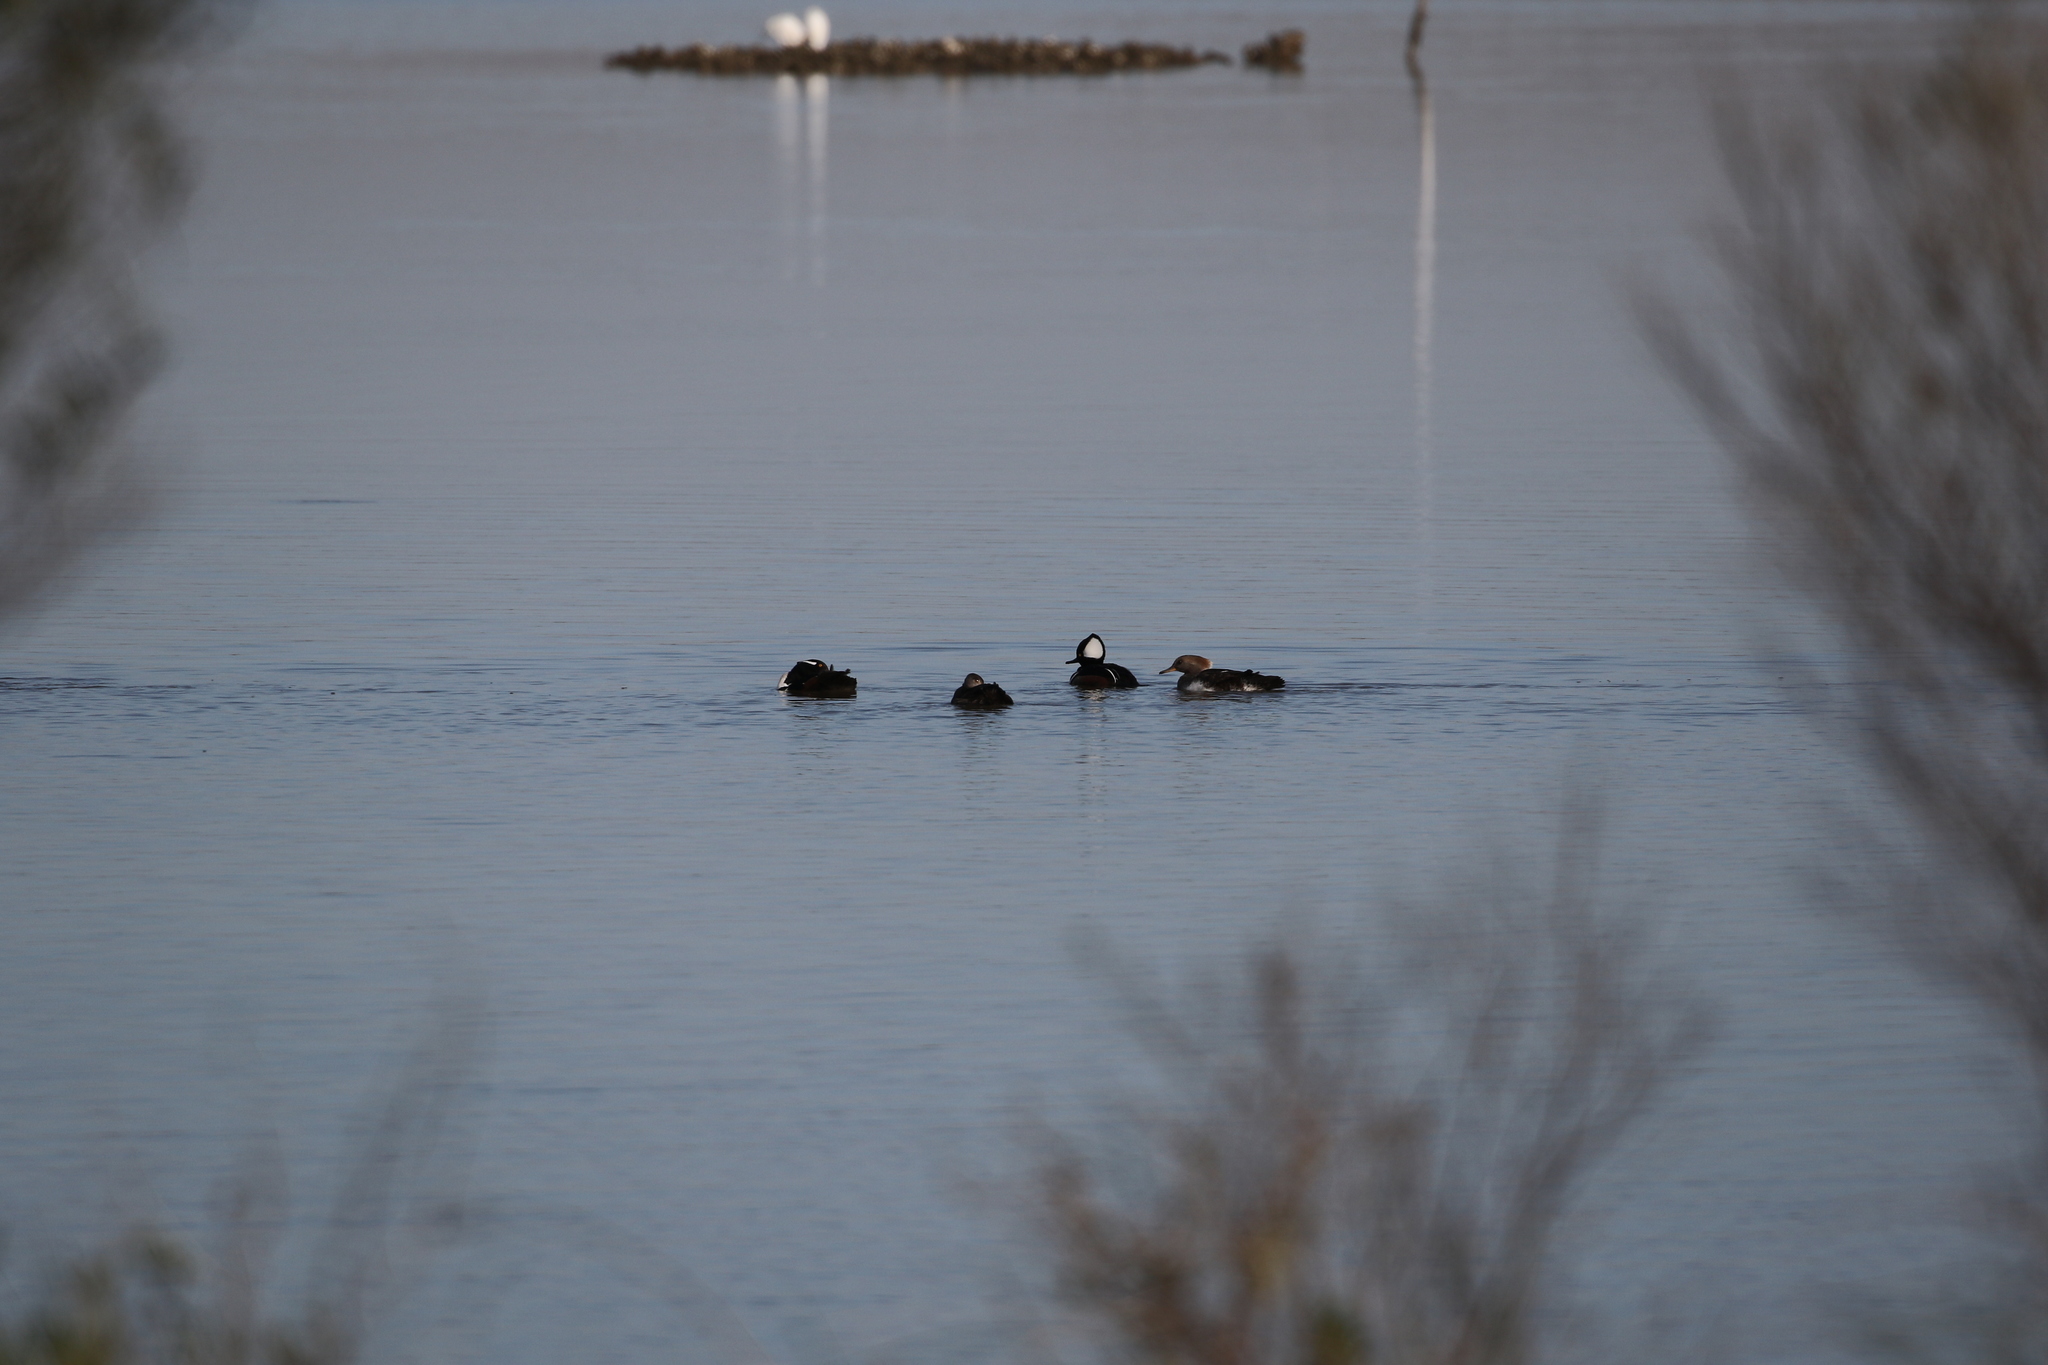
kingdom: Animalia
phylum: Chordata
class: Aves
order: Anseriformes
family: Anatidae
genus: Lophodytes
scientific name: Lophodytes cucullatus
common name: Hooded merganser
